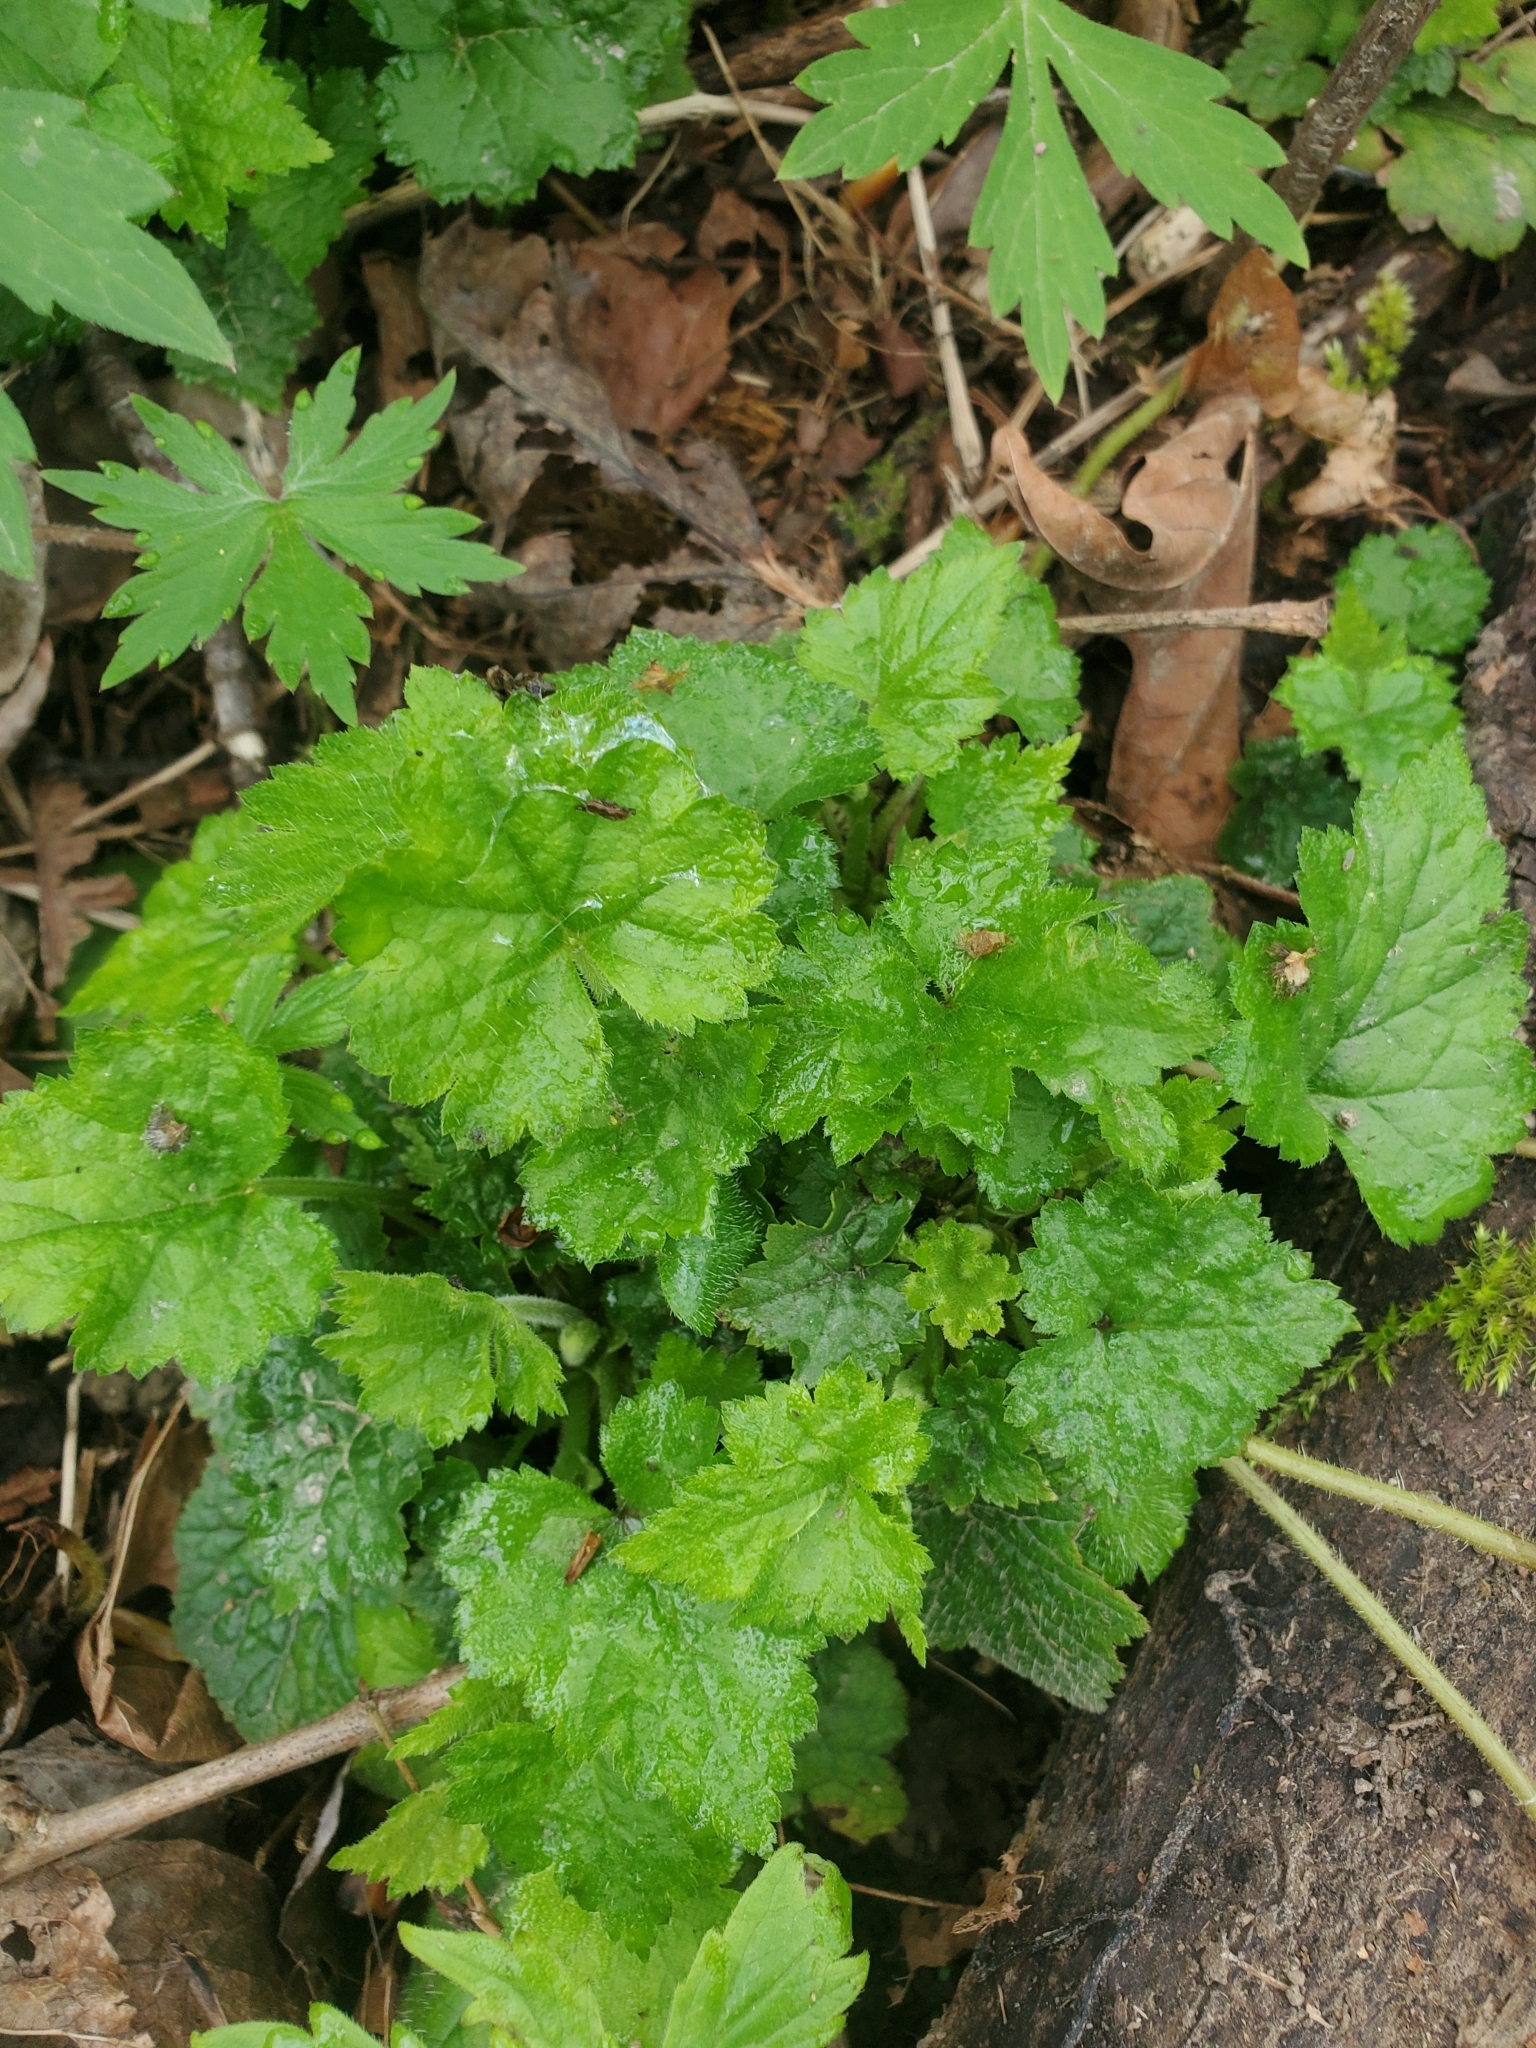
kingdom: Plantae
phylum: Tracheophyta
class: Magnoliopsida
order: Saxifragales
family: Saxifragaceae
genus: Tolmiea
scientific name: Tolmiea menziesii
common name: Pick-a-back-plant
